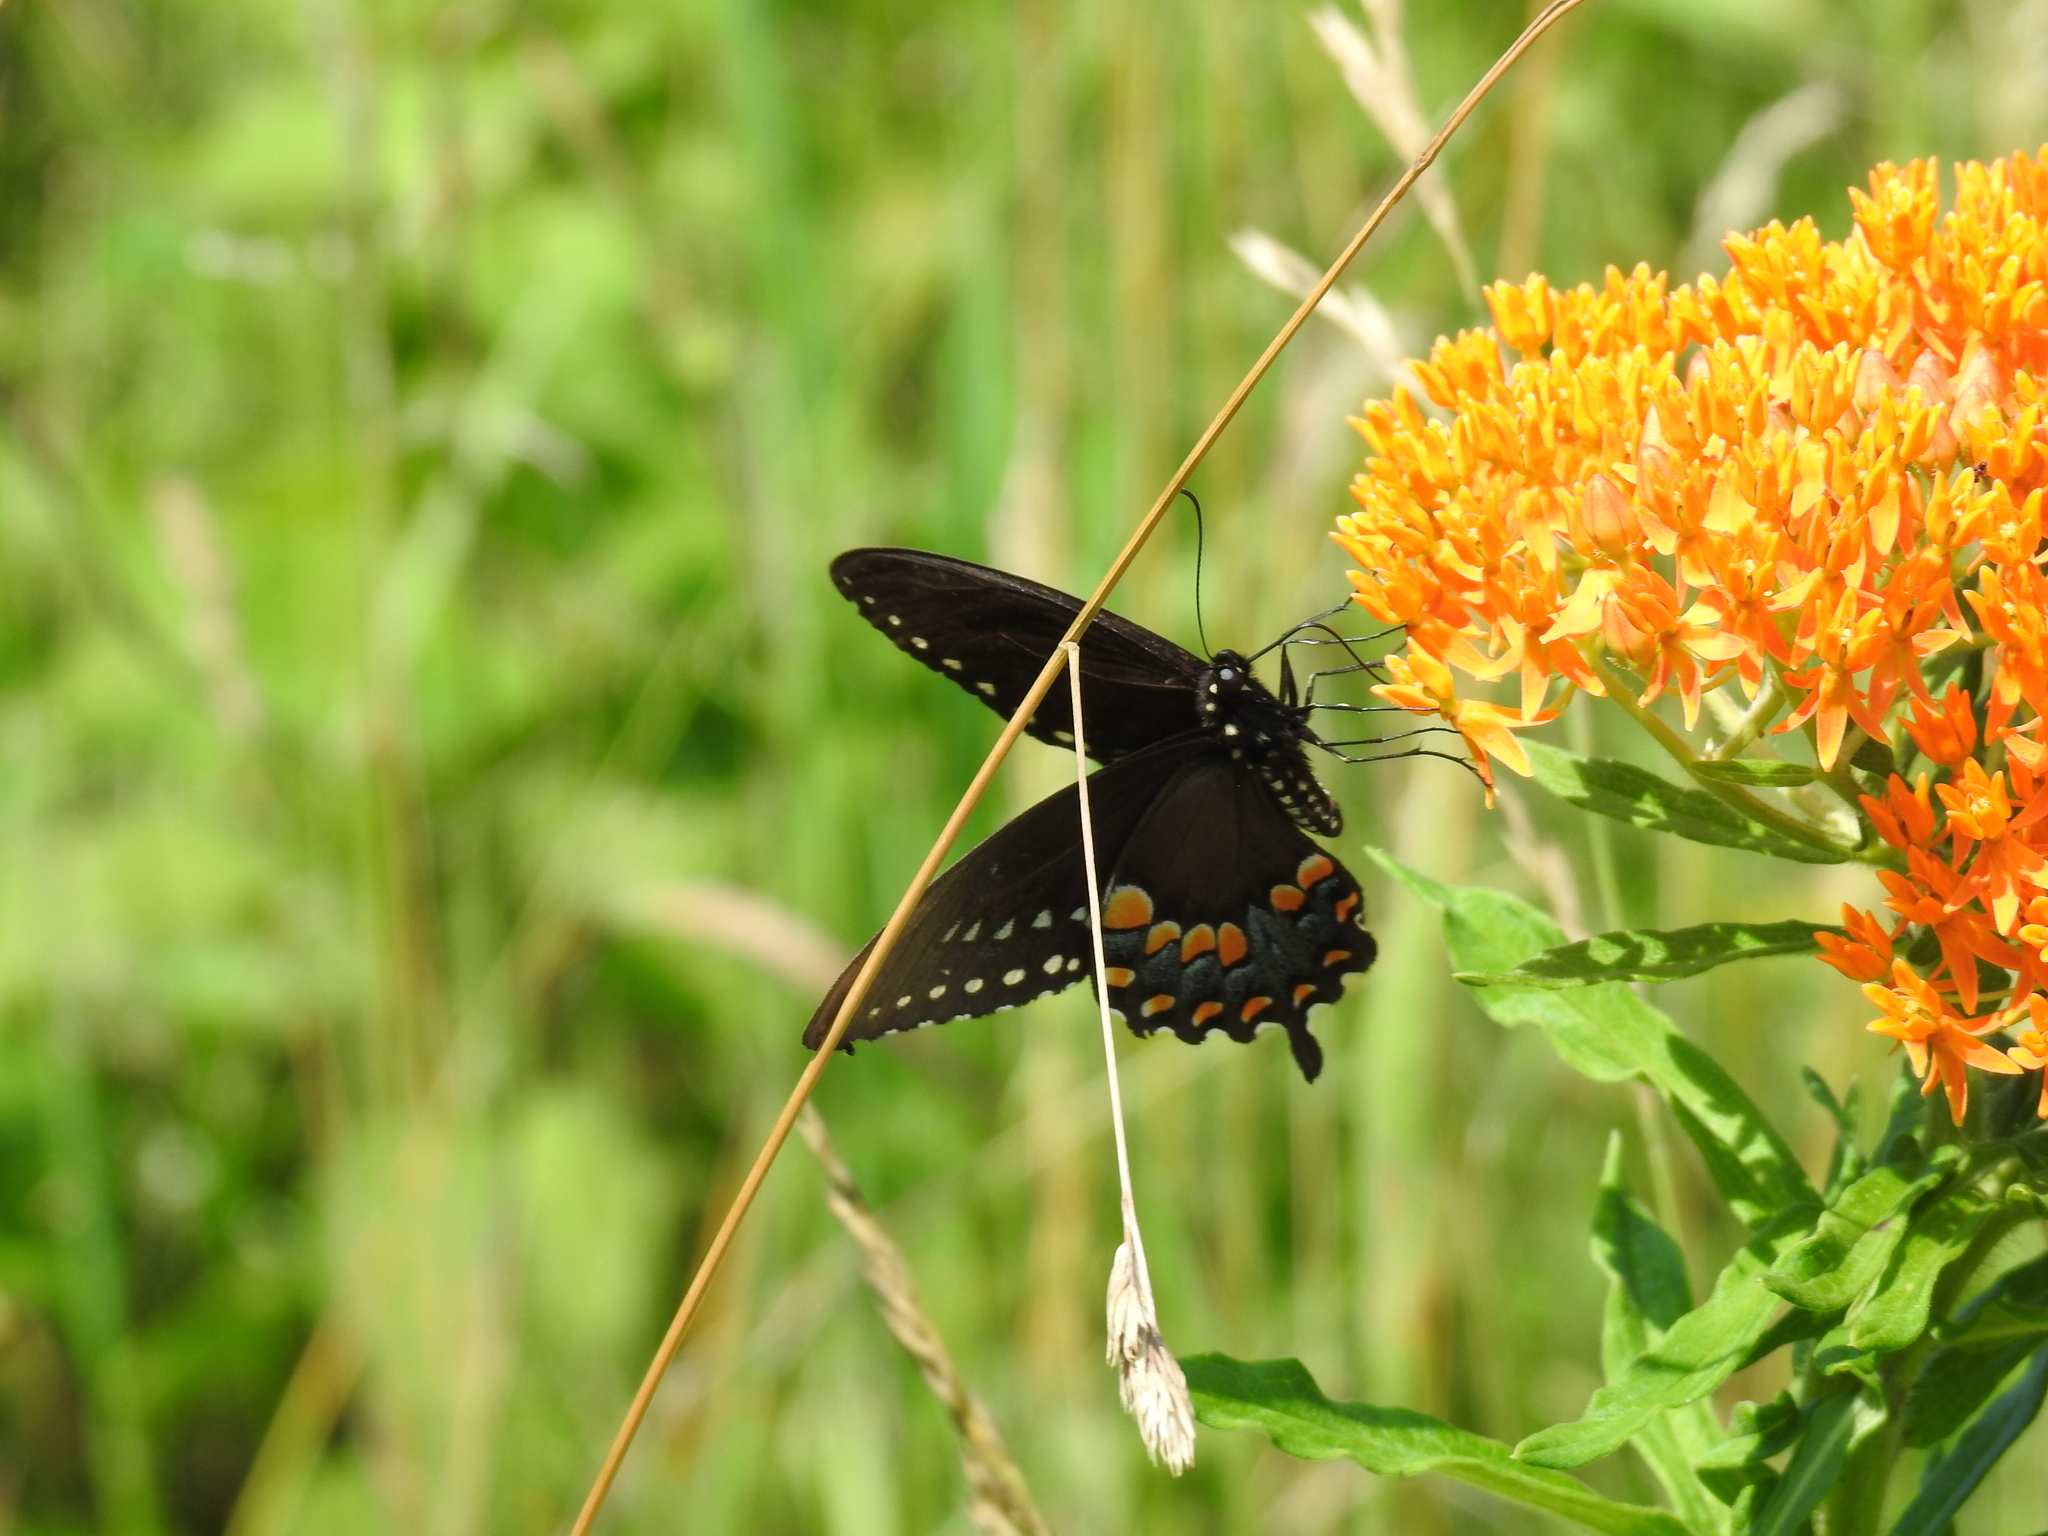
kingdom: Animalia
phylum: Arthropoda
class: Insecta
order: Lepidoptera
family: Papilionidae
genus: Papilio
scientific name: Papilio troilus
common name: Spicebush swallowtail
